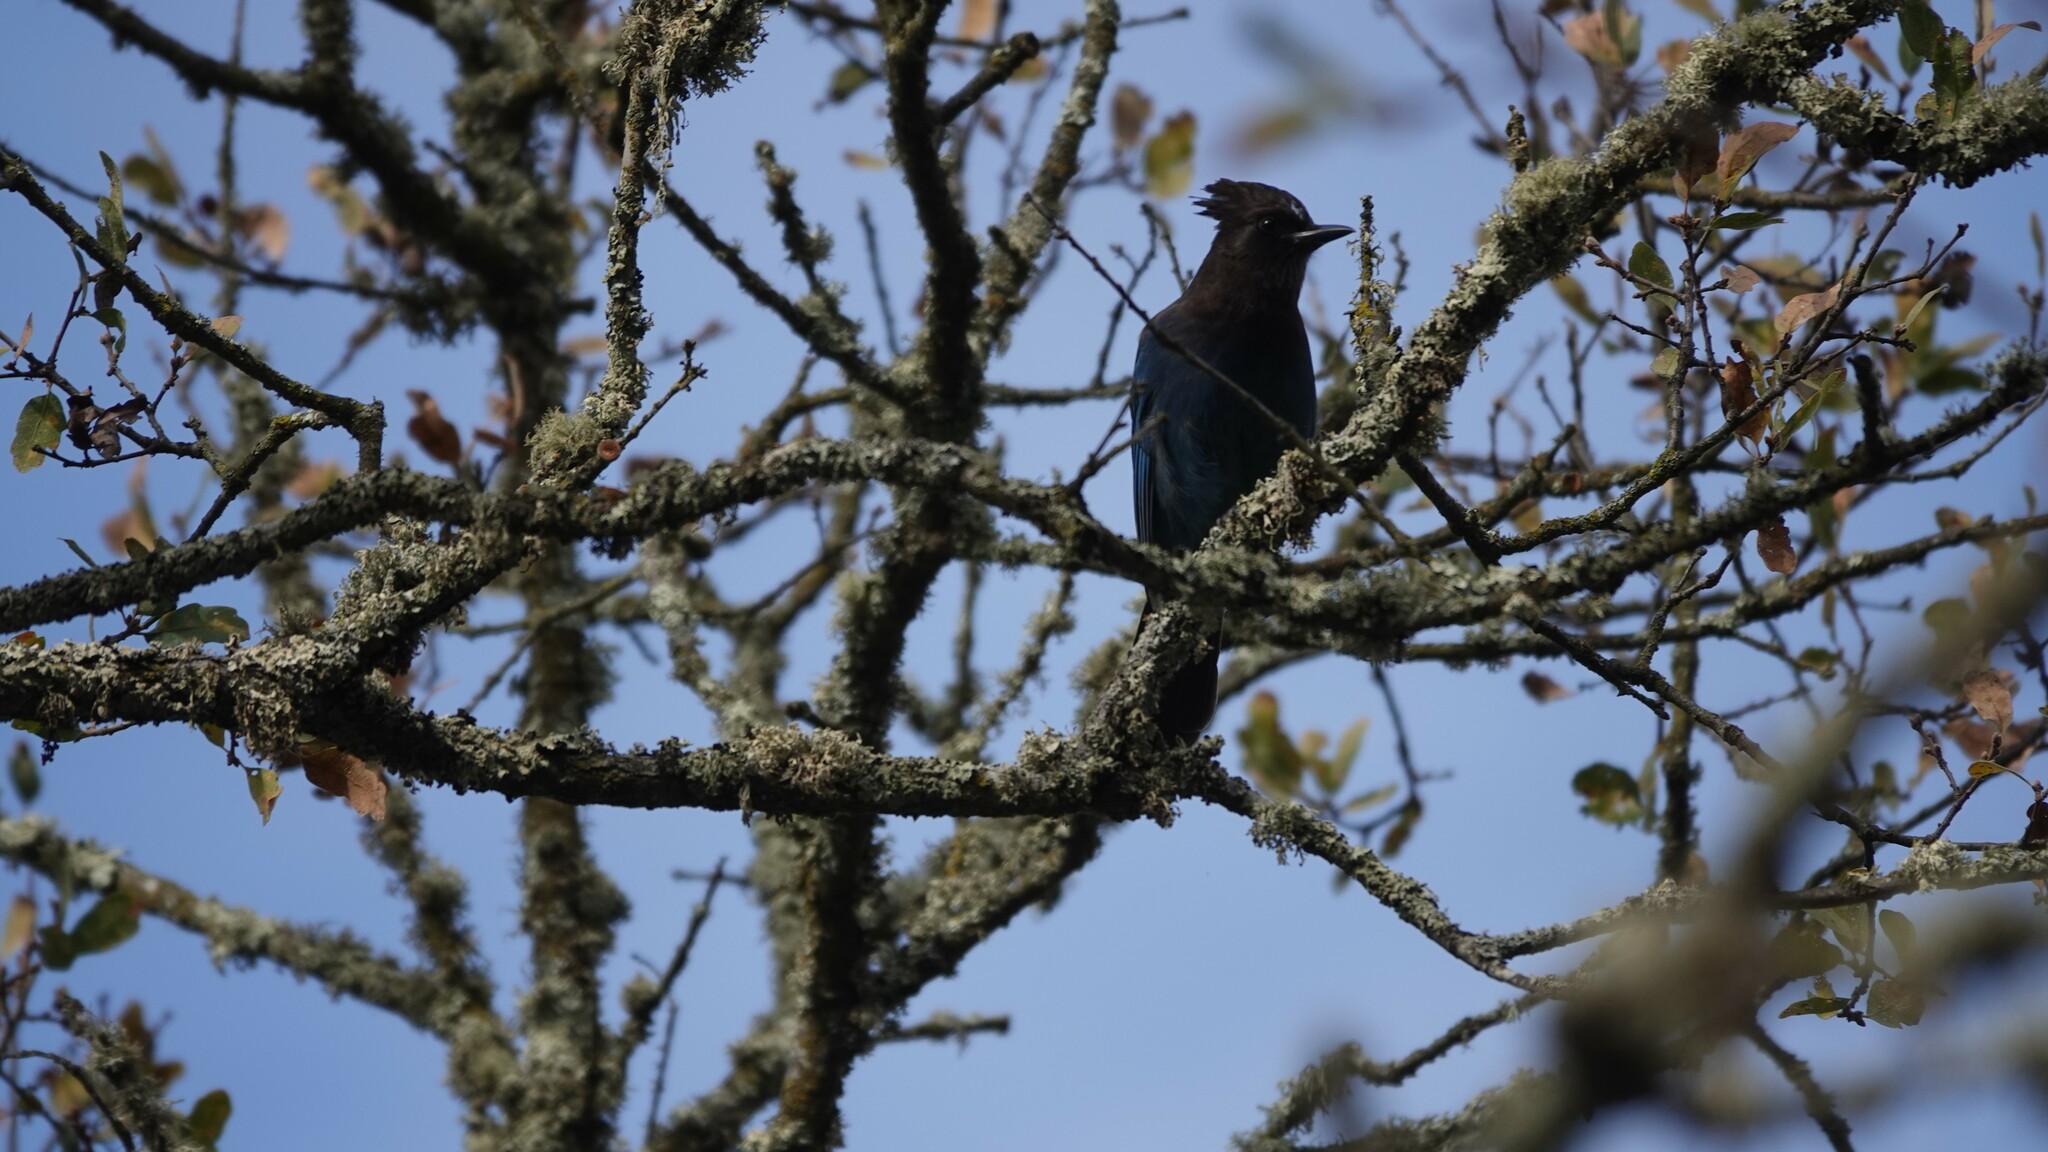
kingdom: Animalia
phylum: Chordata
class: Aves
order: Passeriformes
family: Corvidae
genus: Cyanocitta
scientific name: Cyanocitta stelleri
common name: Steller's jay
